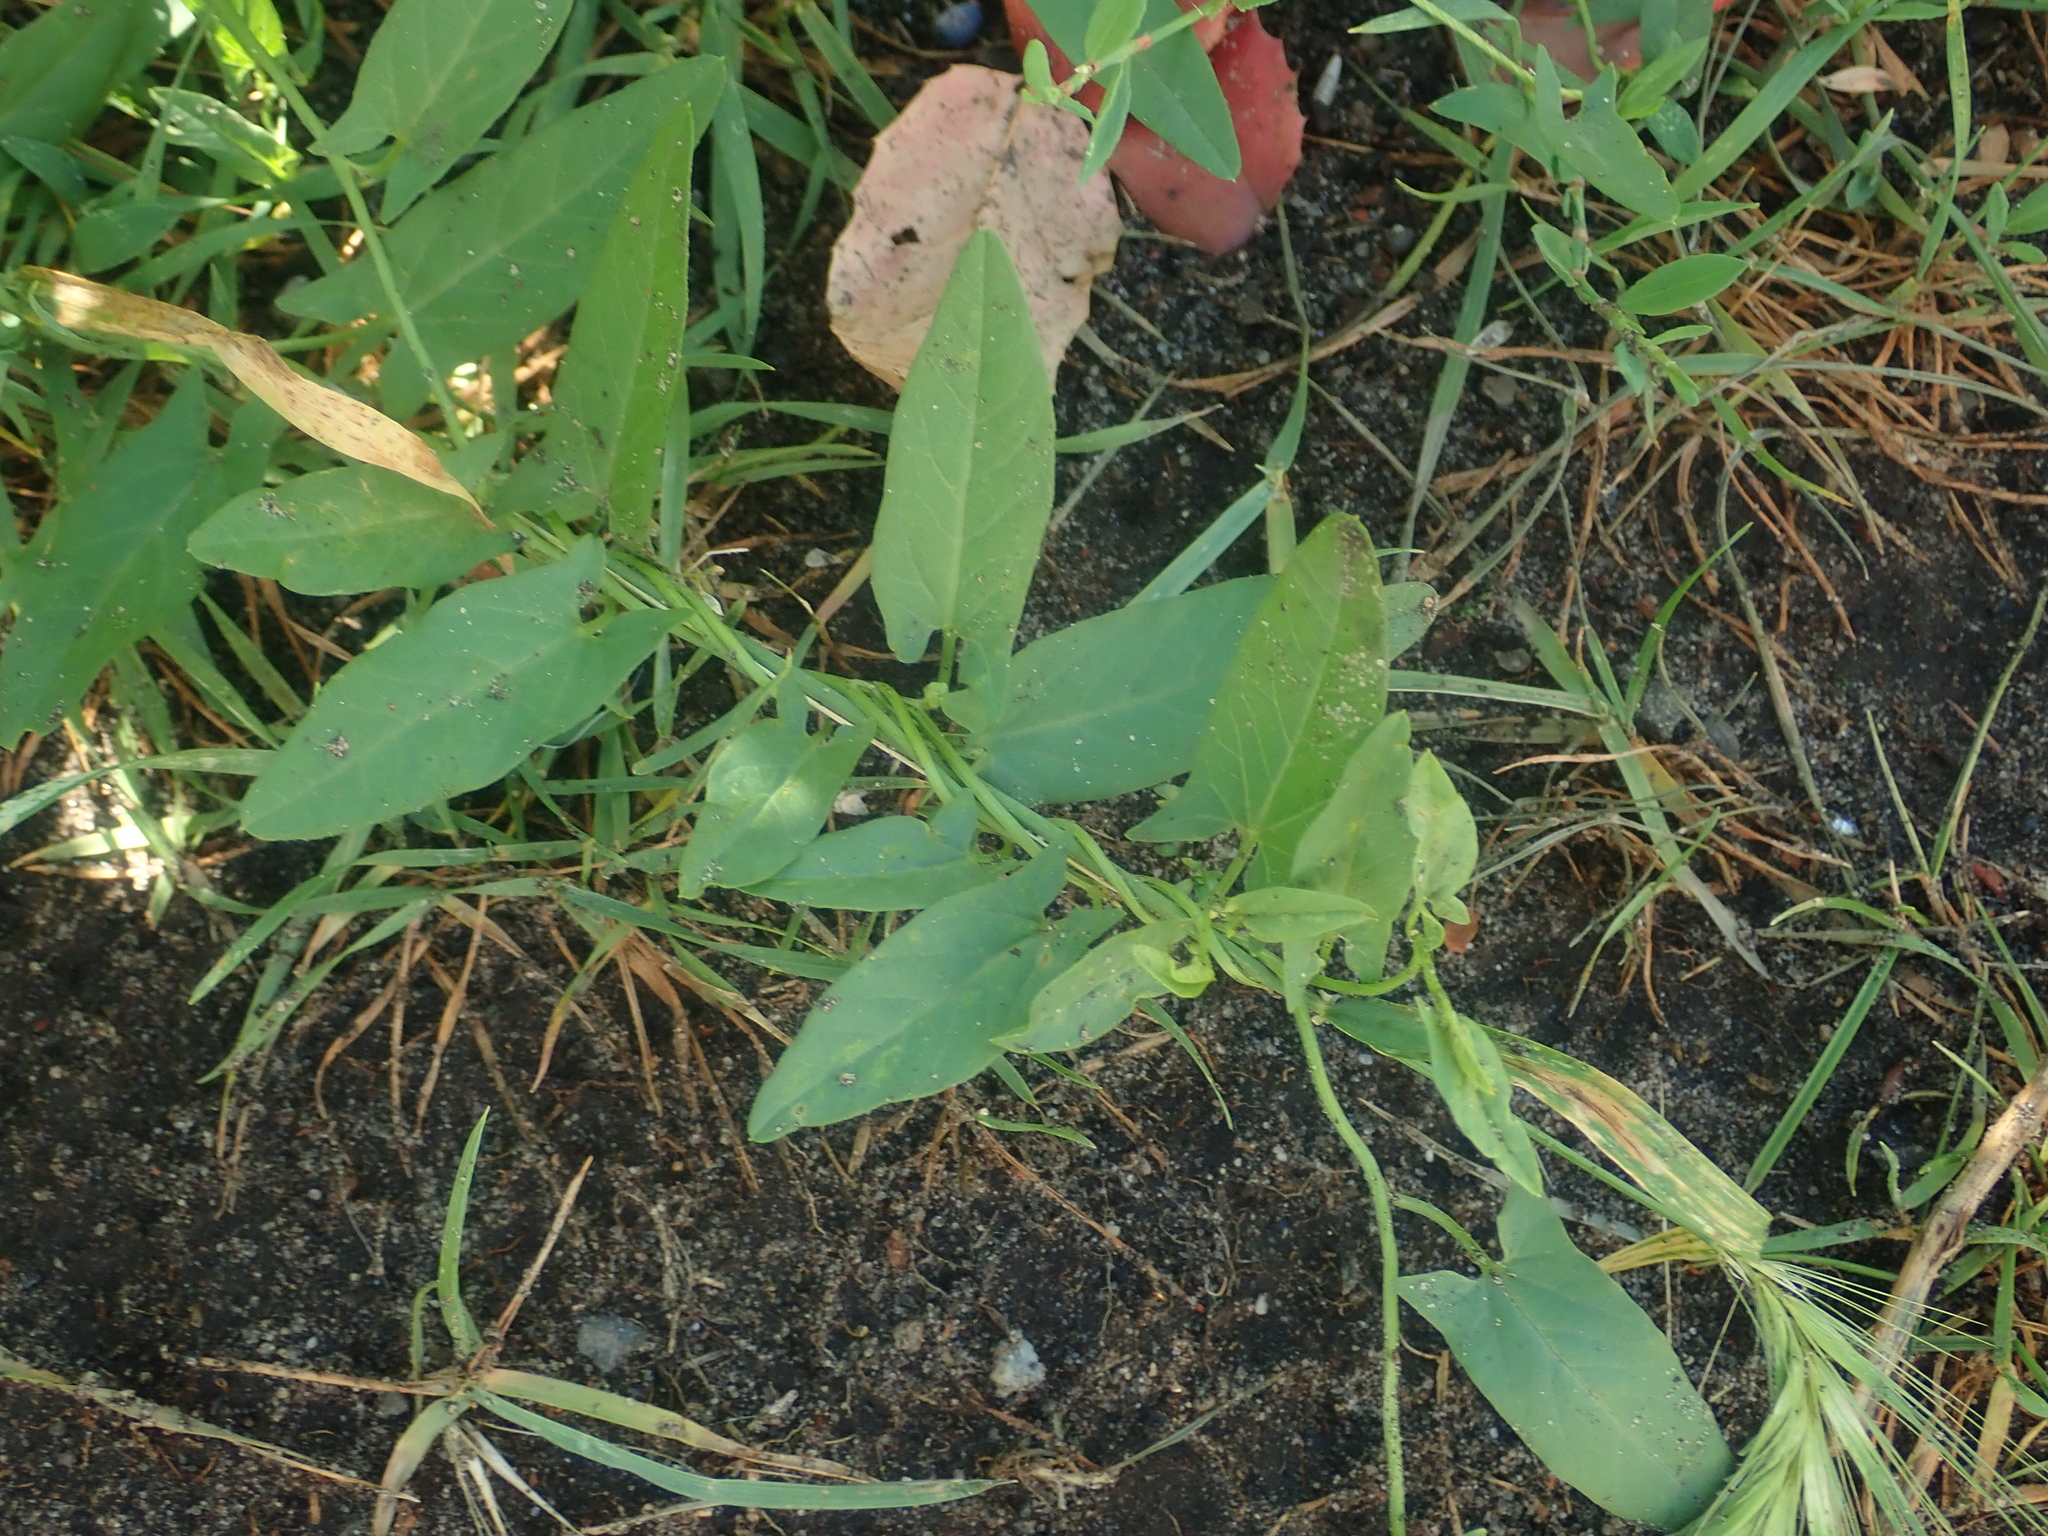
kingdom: Plantae
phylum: Tracheophyta
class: Magnoliopsida
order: Solanales
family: Convolvulaceae
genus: Convolvulus
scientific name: Convolvulus arvensis
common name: Field bindweed
